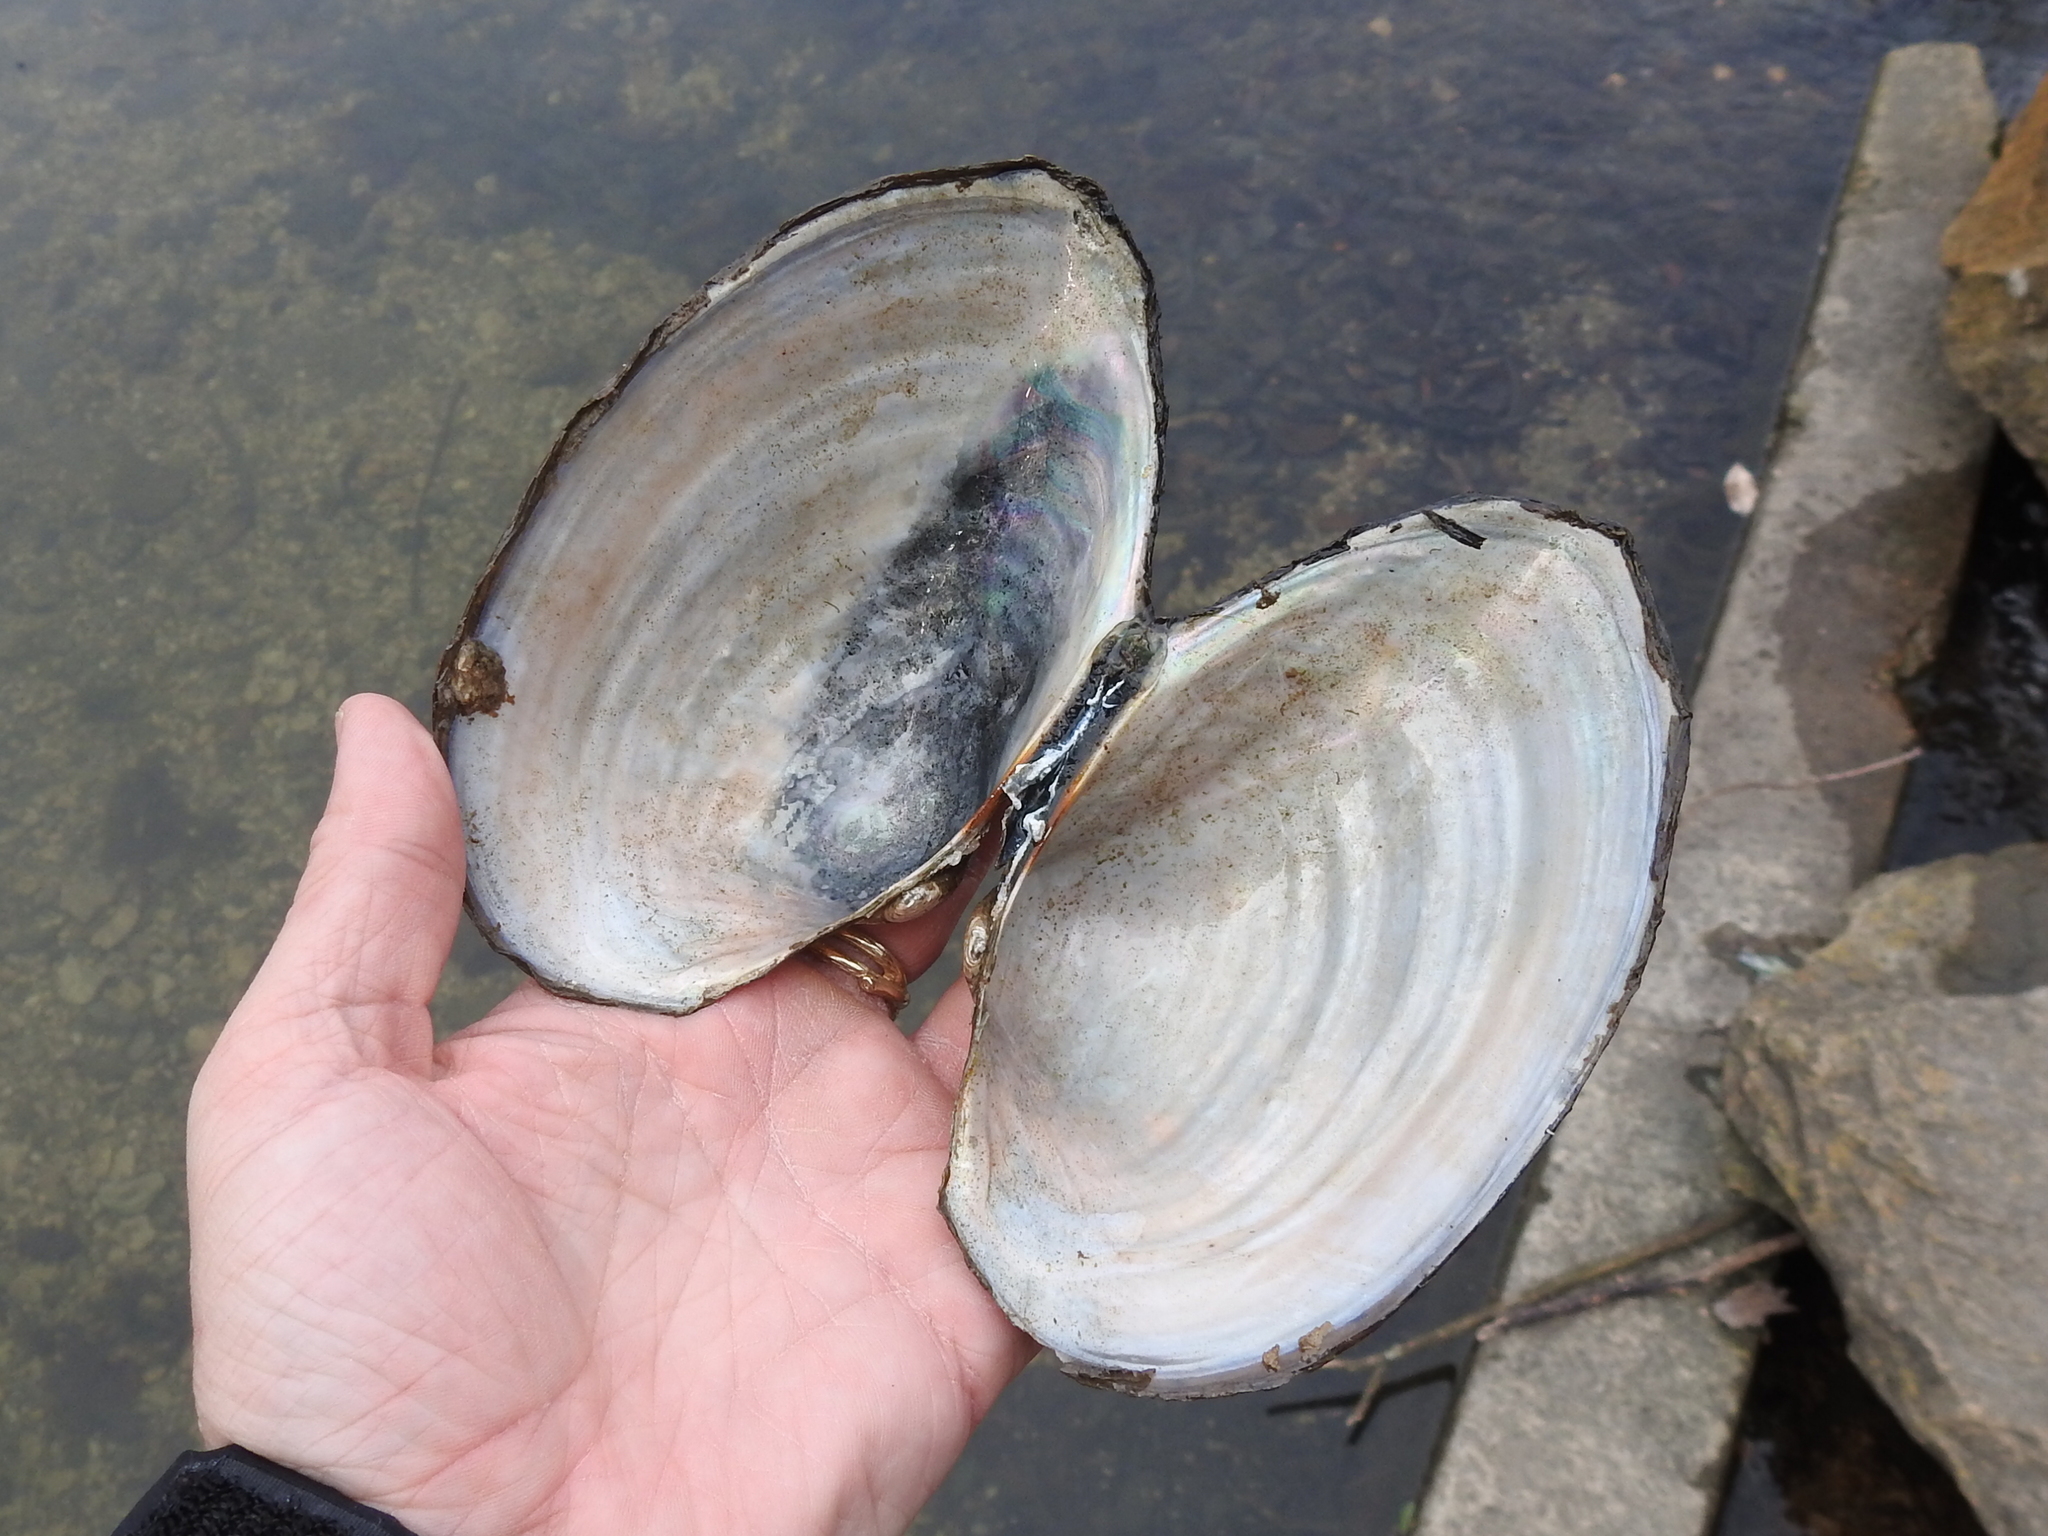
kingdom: Animalia
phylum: Mollusca
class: Bivalvia
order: Unionida
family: Unionidae
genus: Pyganodon
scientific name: Pyganodon grandis
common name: Giant floater
